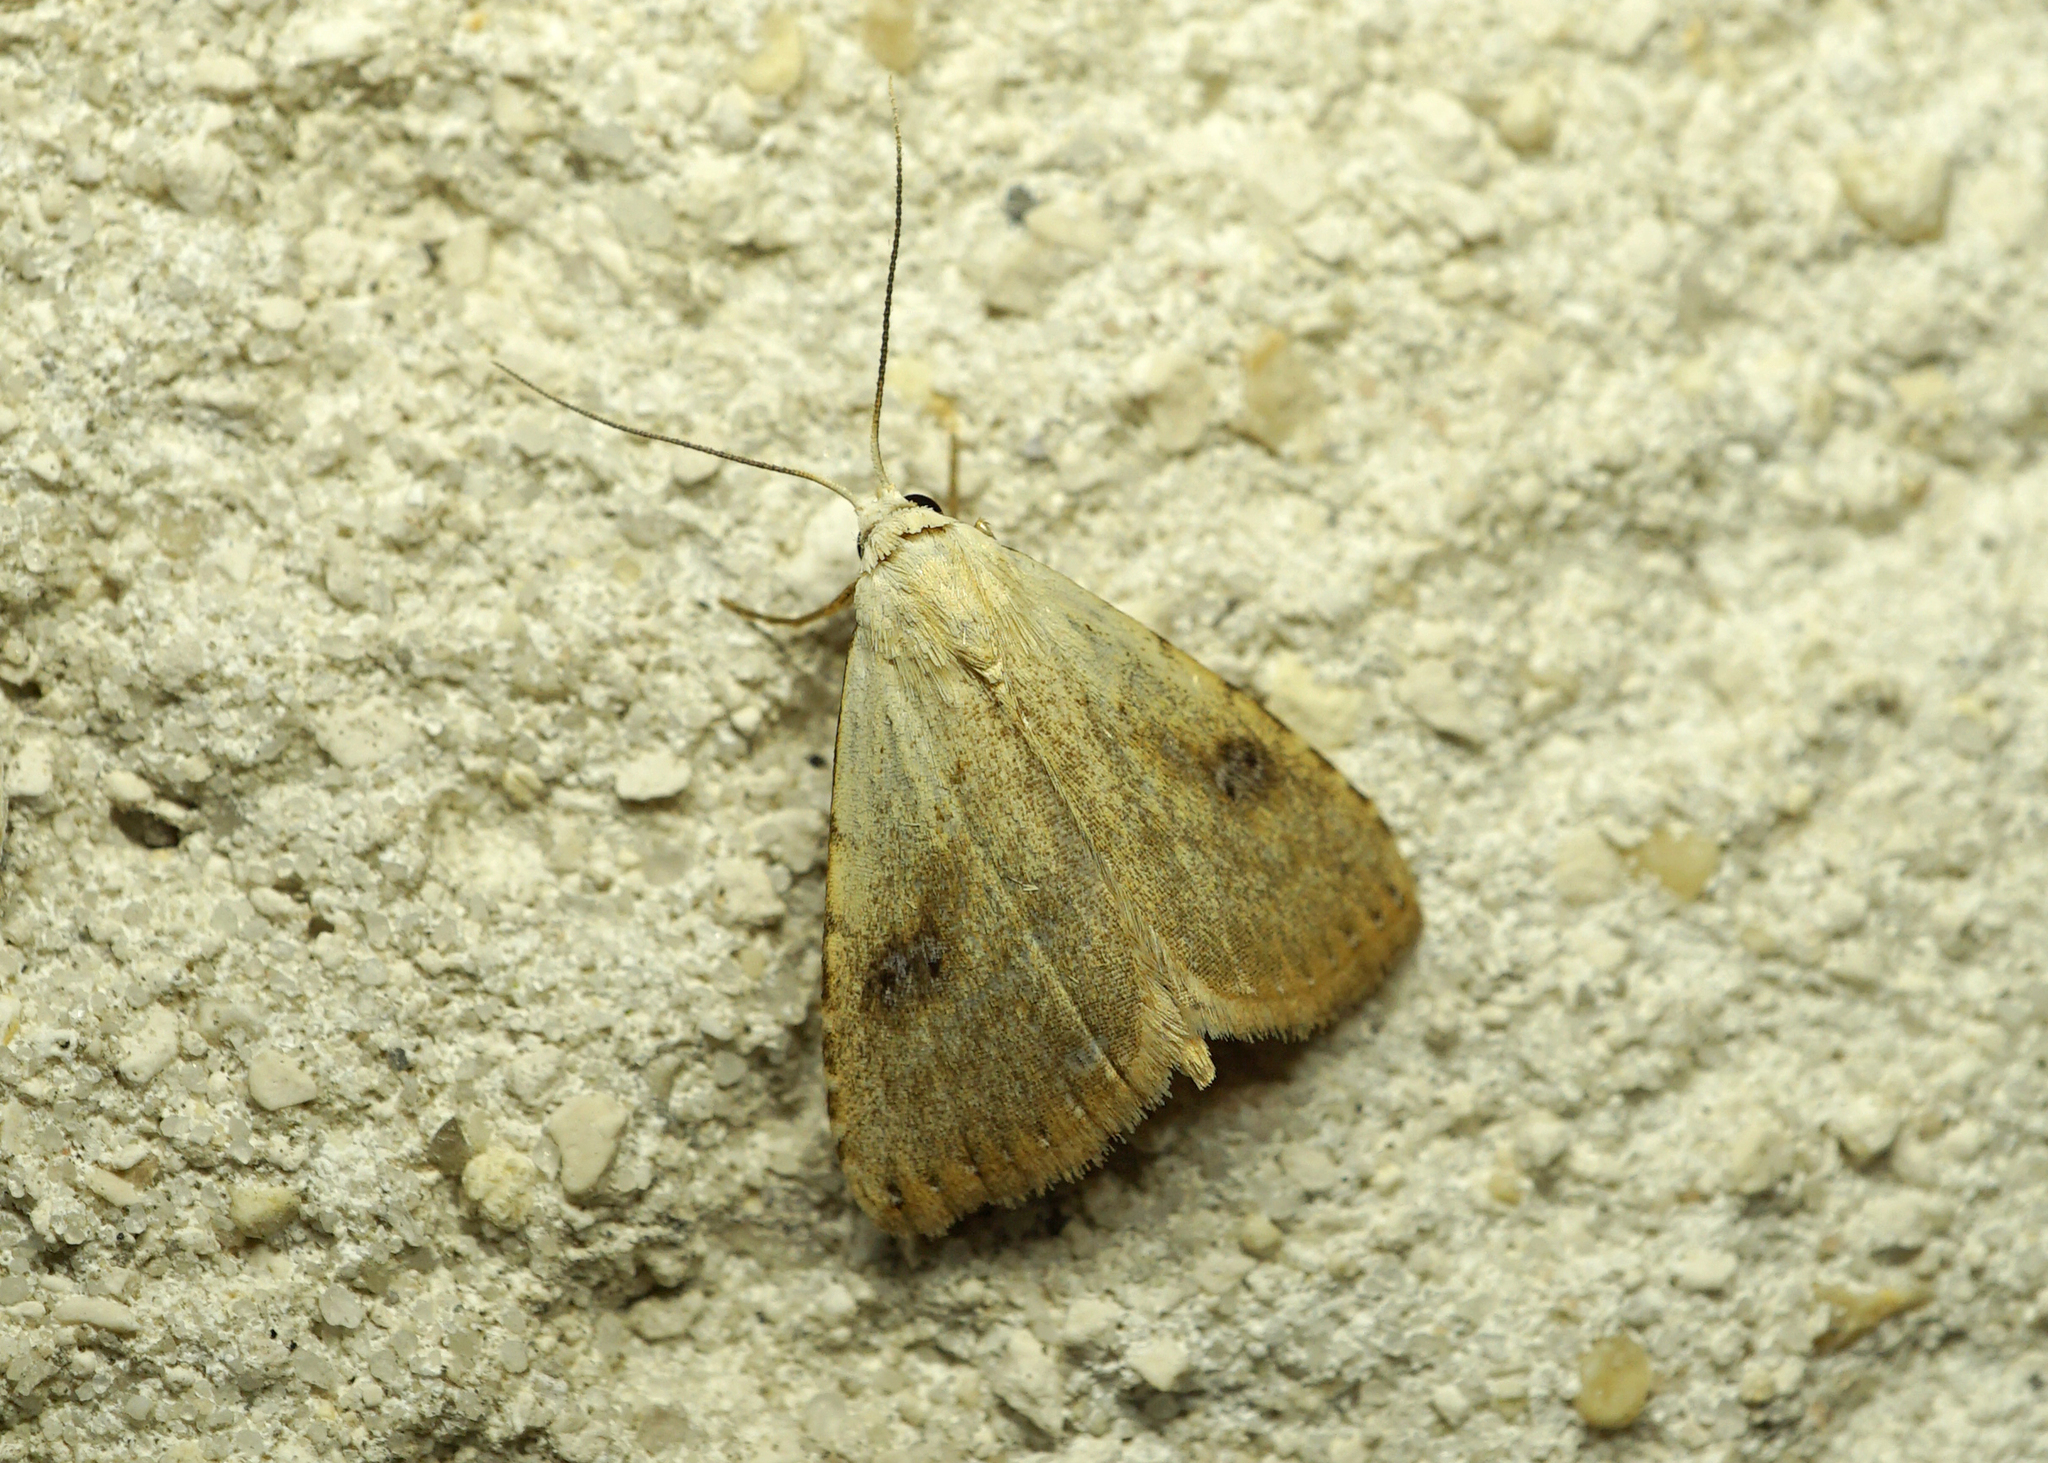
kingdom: Animalia
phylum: Arthropoda
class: Insecta
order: Lepidoptera
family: Erebidae
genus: Rivula
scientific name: Rivula sericealis
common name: Straw dot
